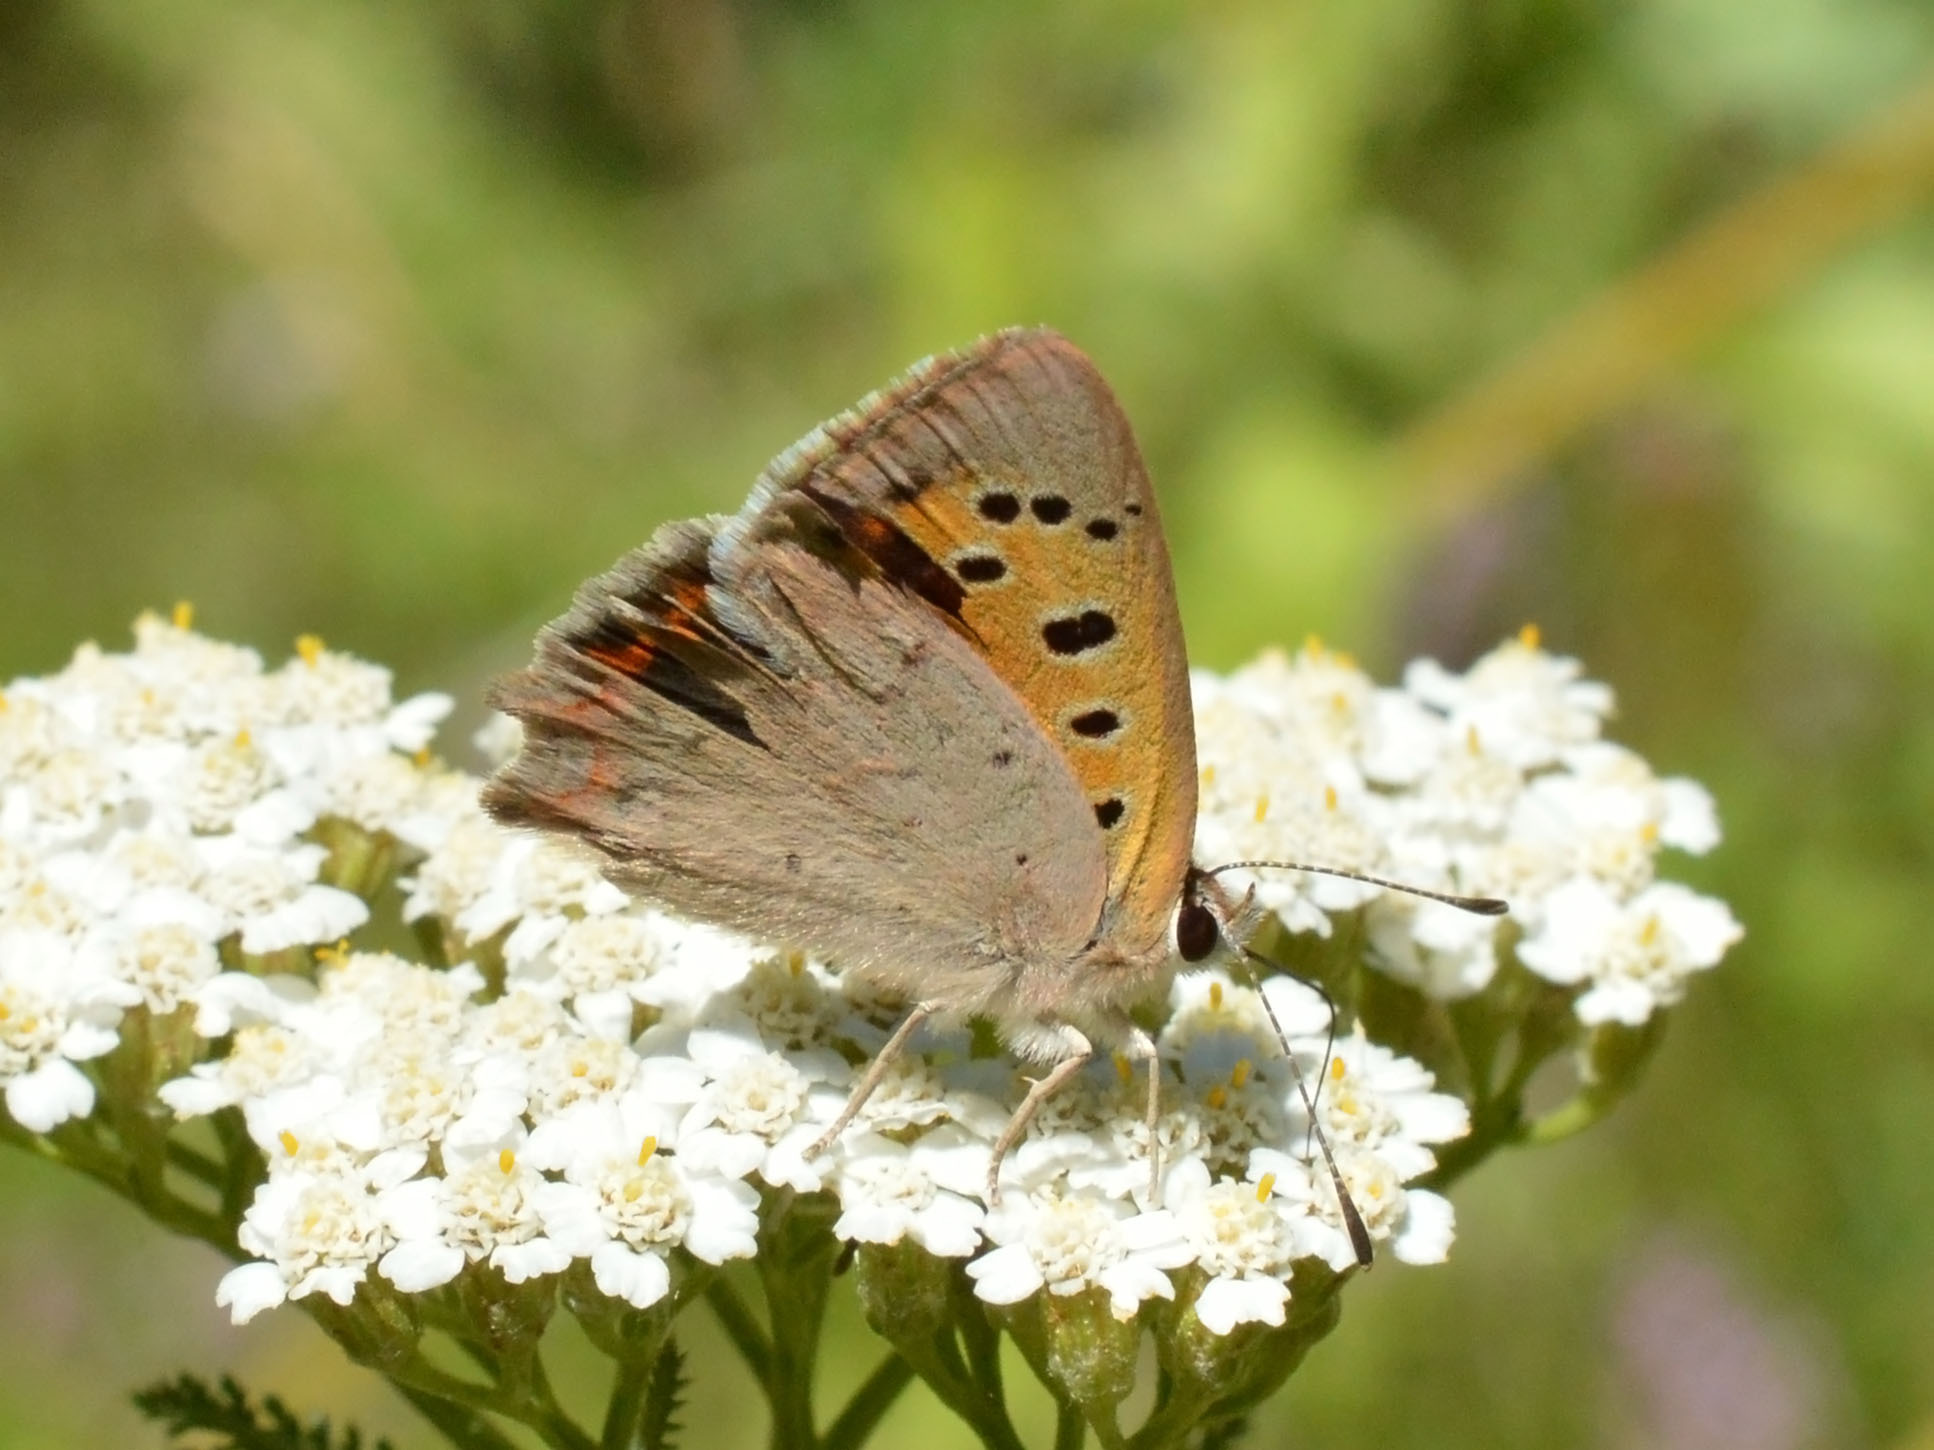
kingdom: Animalia
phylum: Arthropoda
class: Insecta
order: Lepidoptera
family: Lycaenidae
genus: Lycaena
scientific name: Lycaena phlaeas
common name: Small copper
